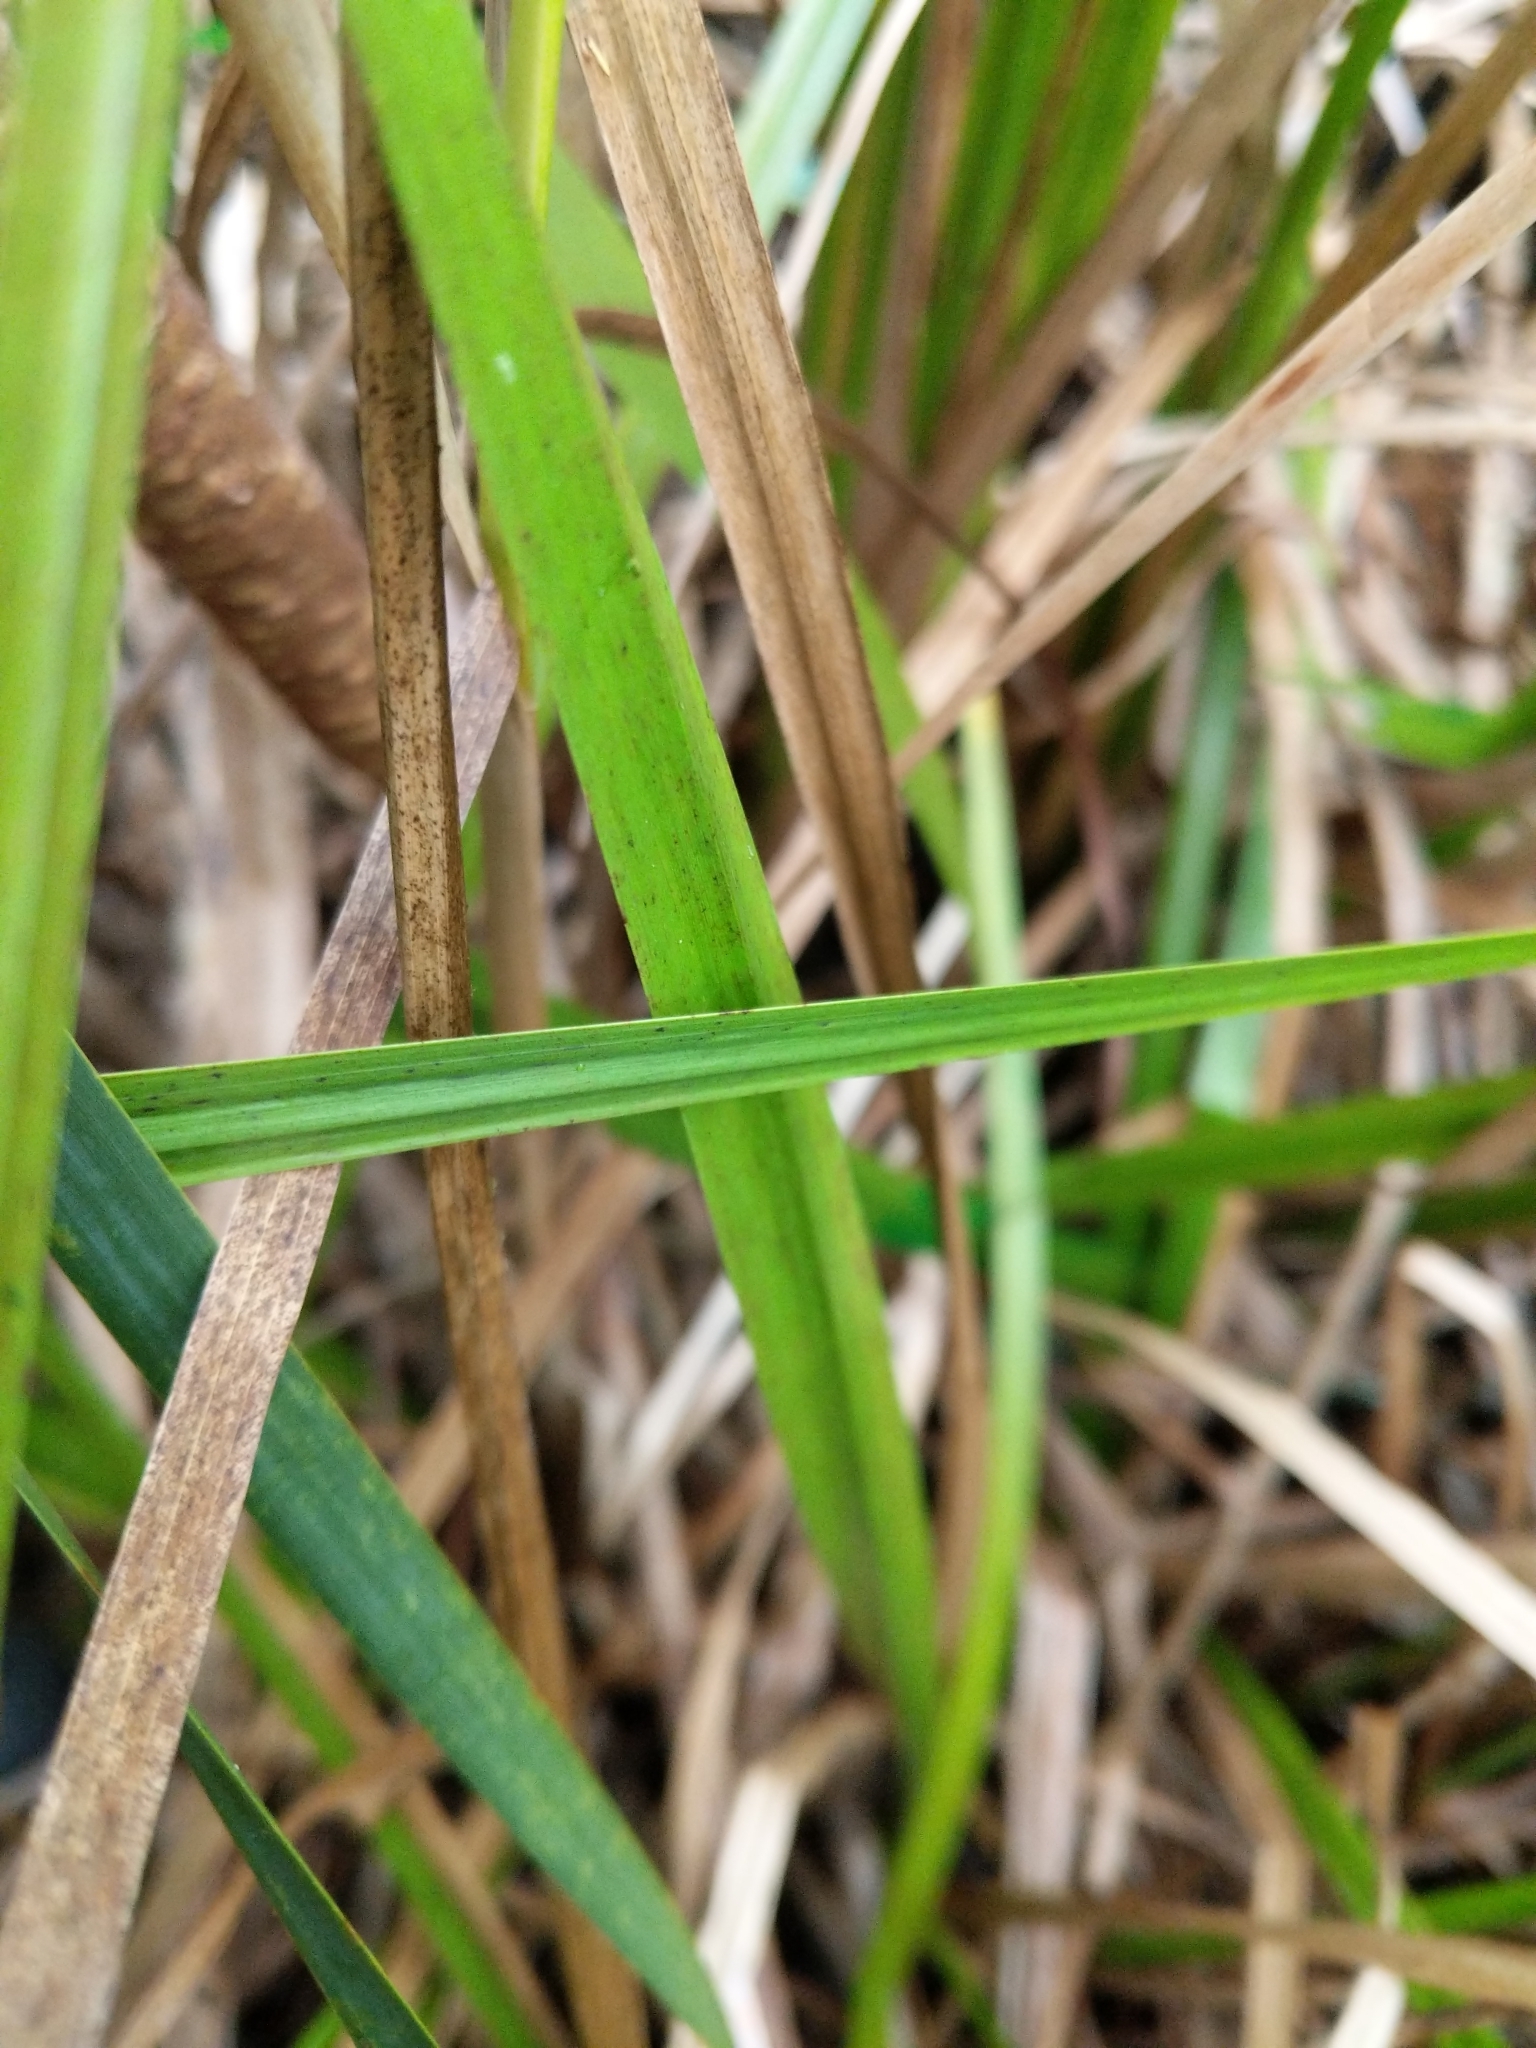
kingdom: Plantae
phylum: Tracheophyta
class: Liliopsida
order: Acorales
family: Acoraceae
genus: Acorus
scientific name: Acorus calamus
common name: Sweet-flag
